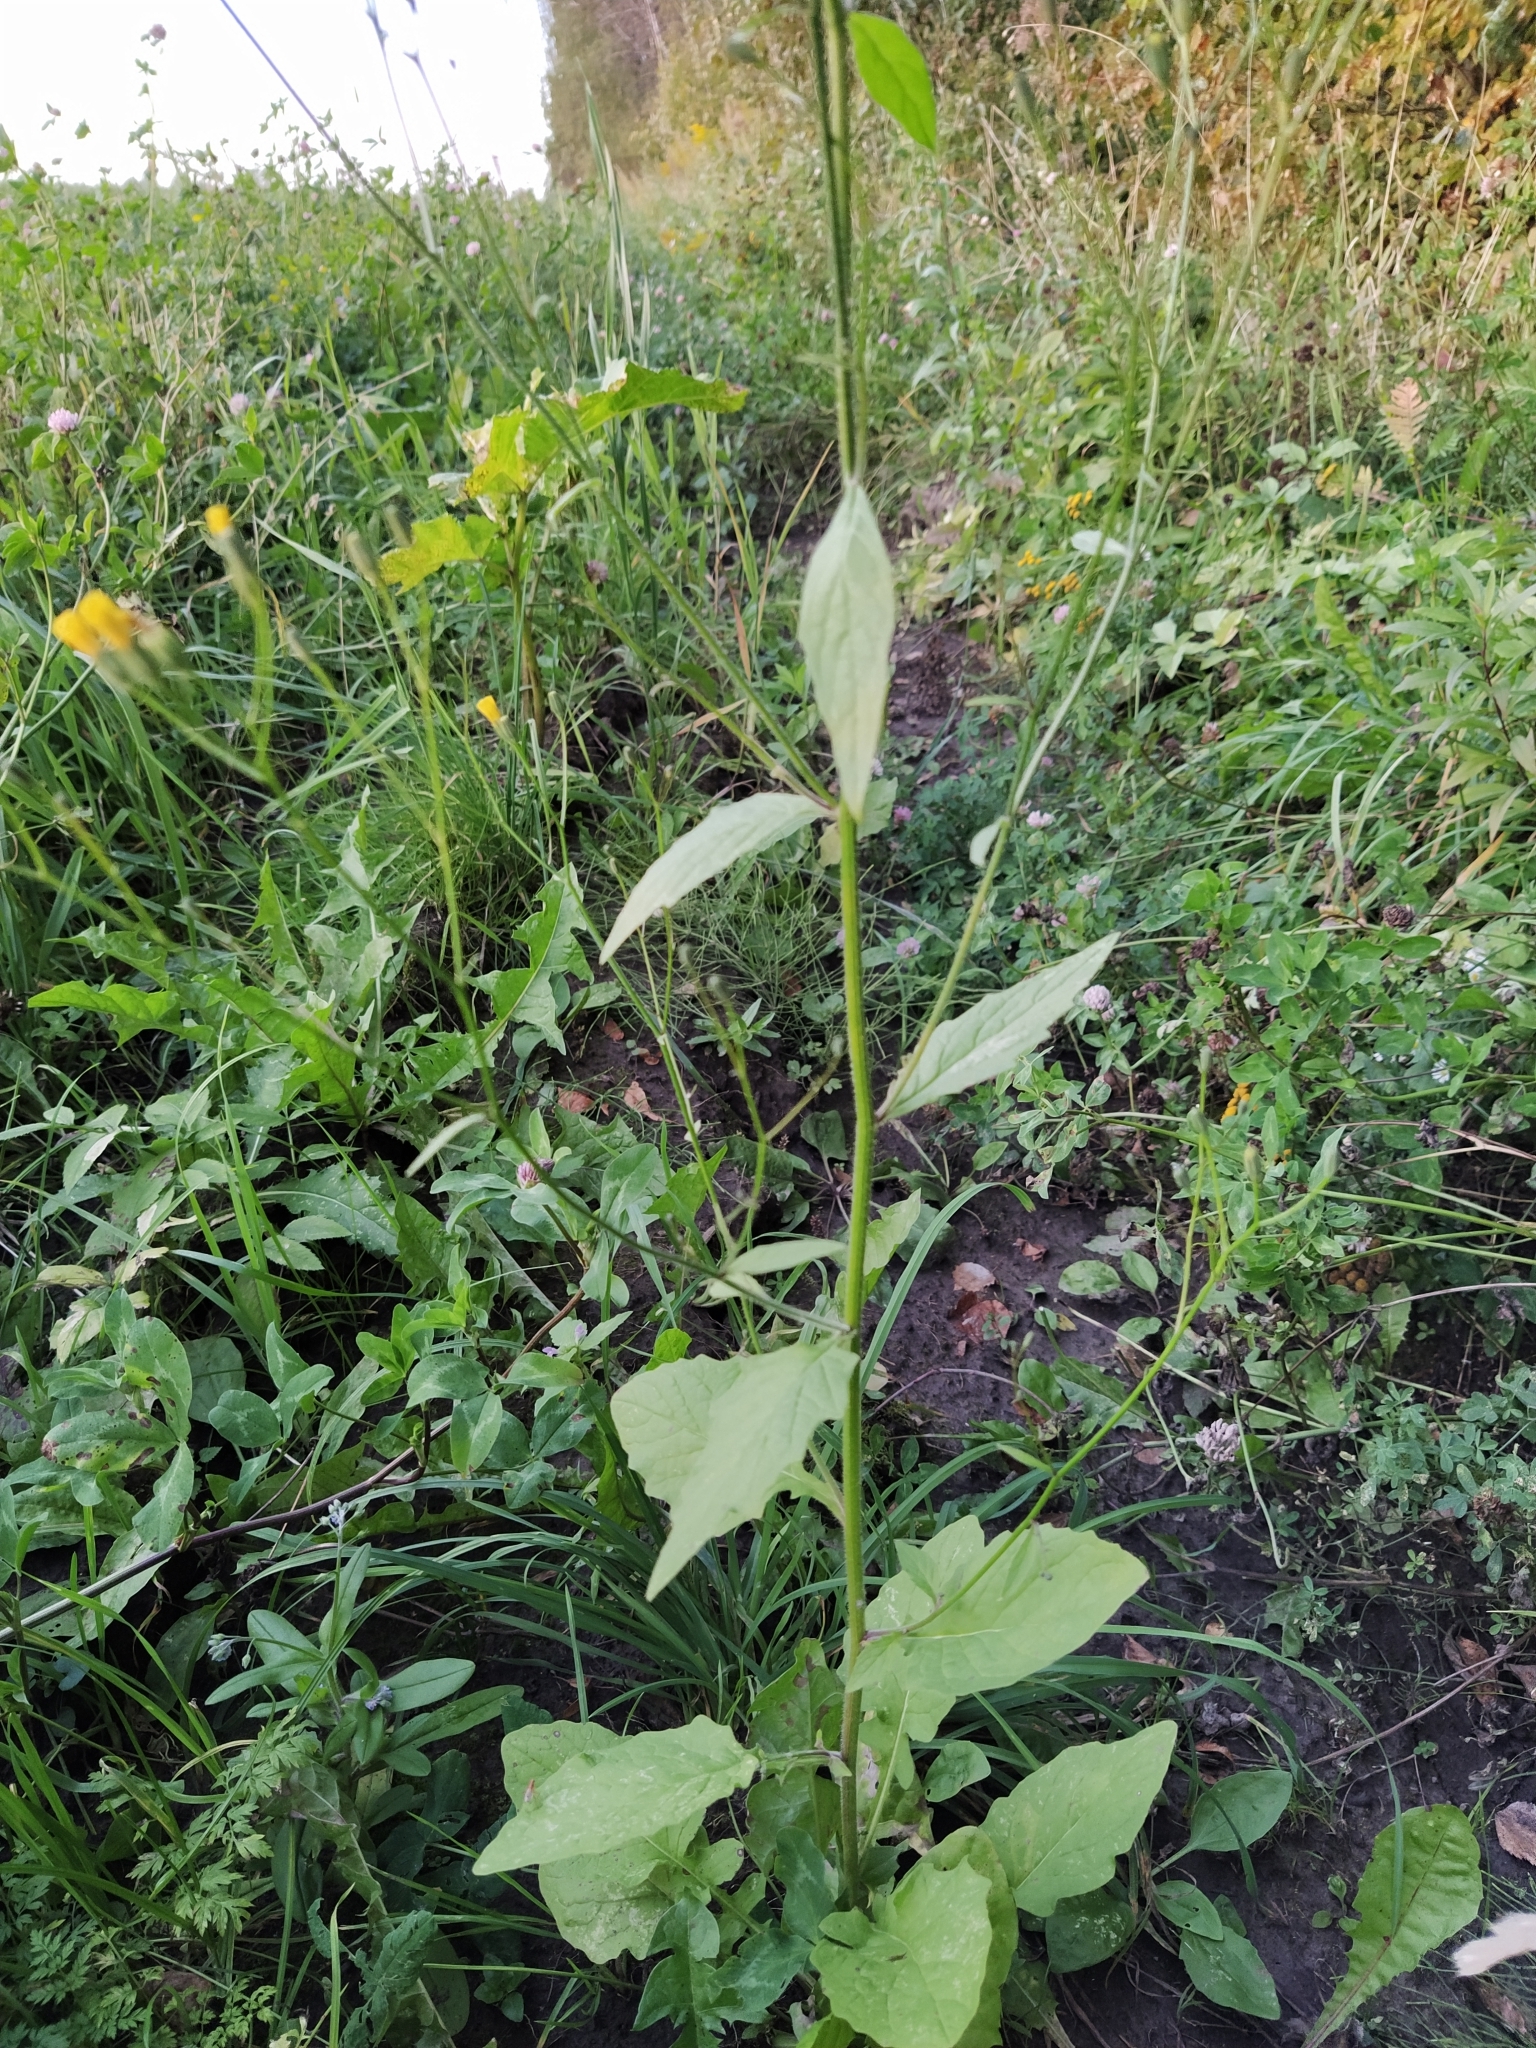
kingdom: Plantae
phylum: Tracheophyta
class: Magnoliopsida
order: Asterales
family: Asteraceae
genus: Lapsana
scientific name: Lapsana communis
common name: Nipplewort
